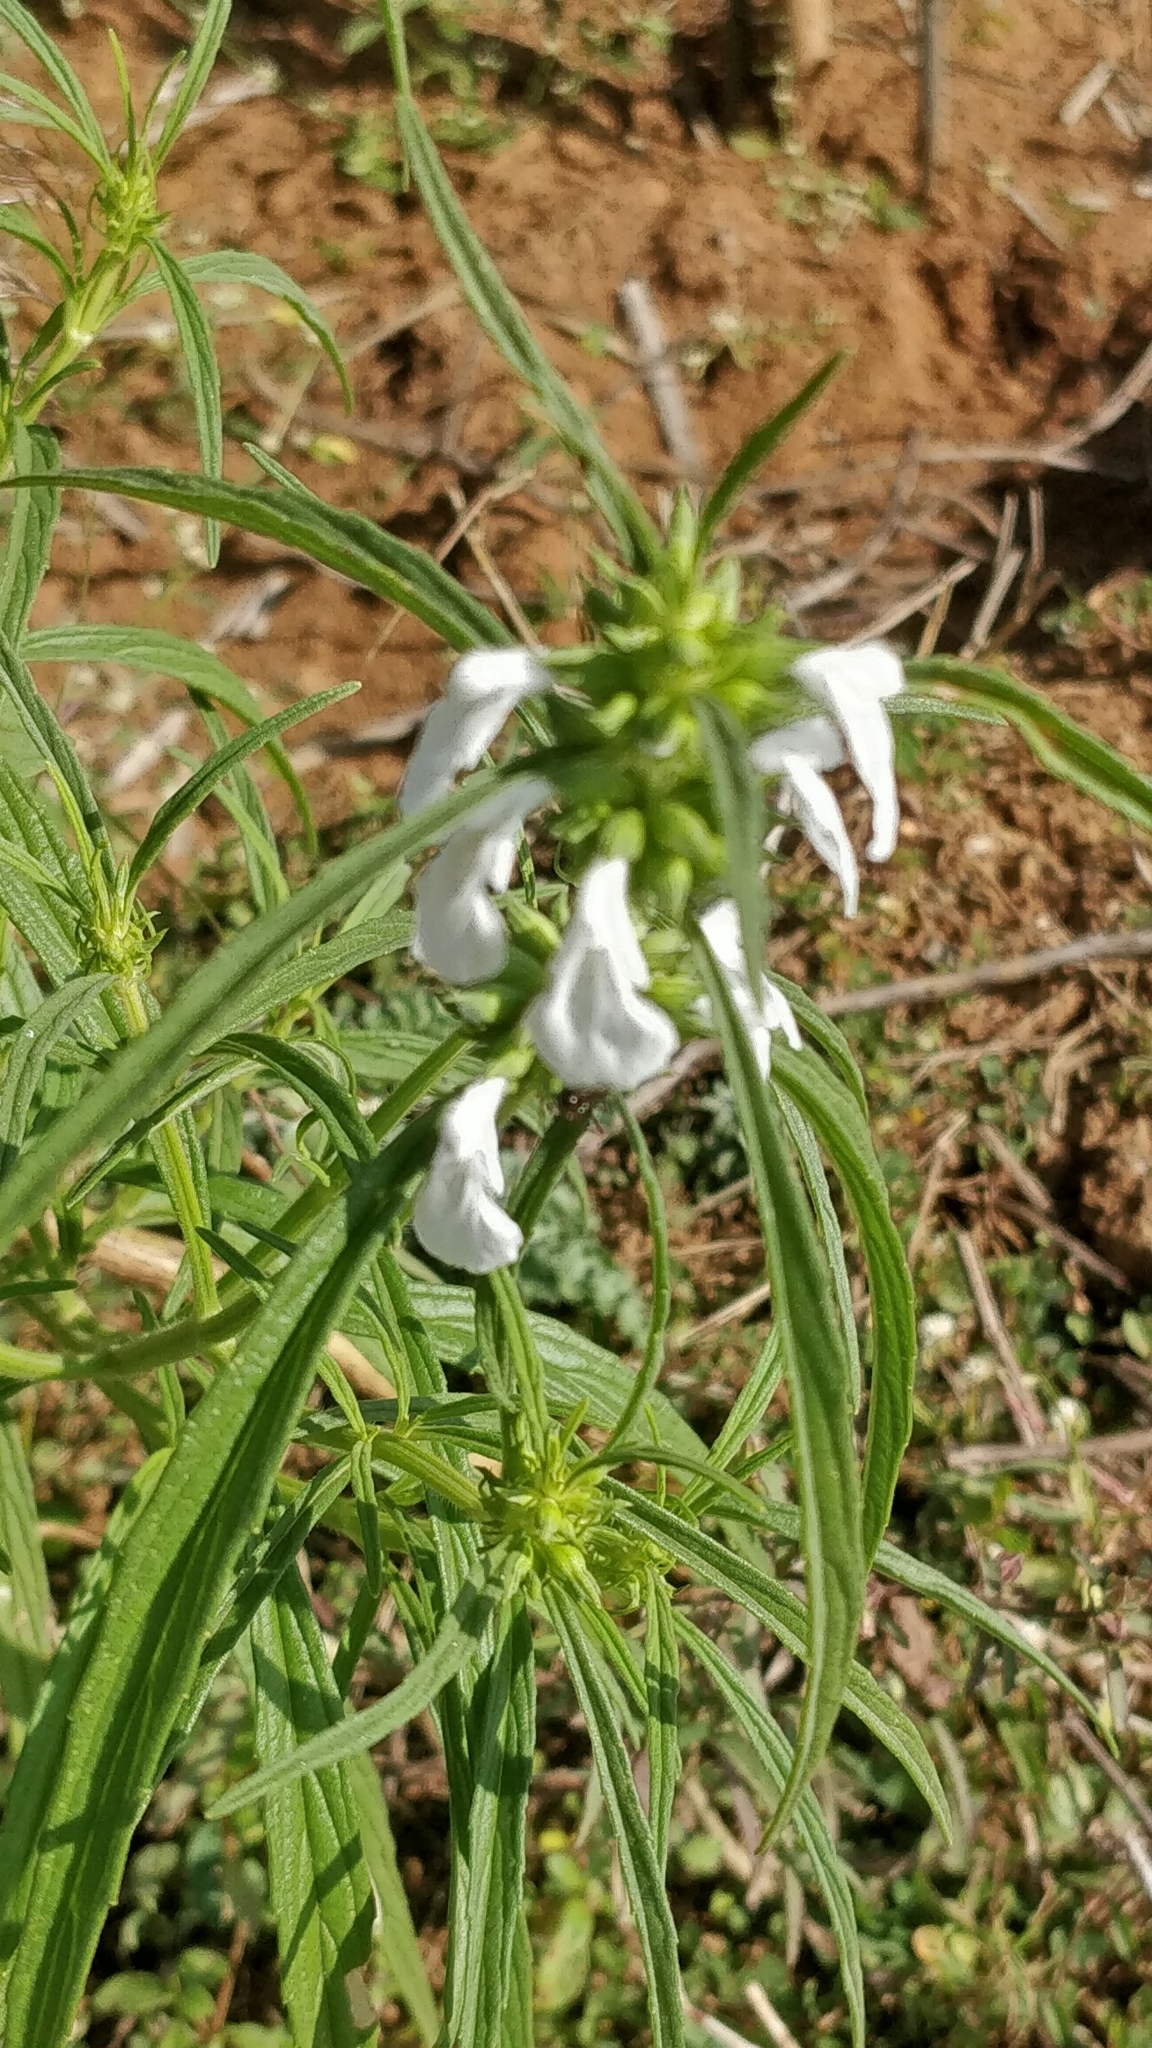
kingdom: Plantae
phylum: Tracheophyta
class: Magnoliopsida
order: Lamiales
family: Lamiaceae
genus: Leucas
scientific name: Leucas aspera
